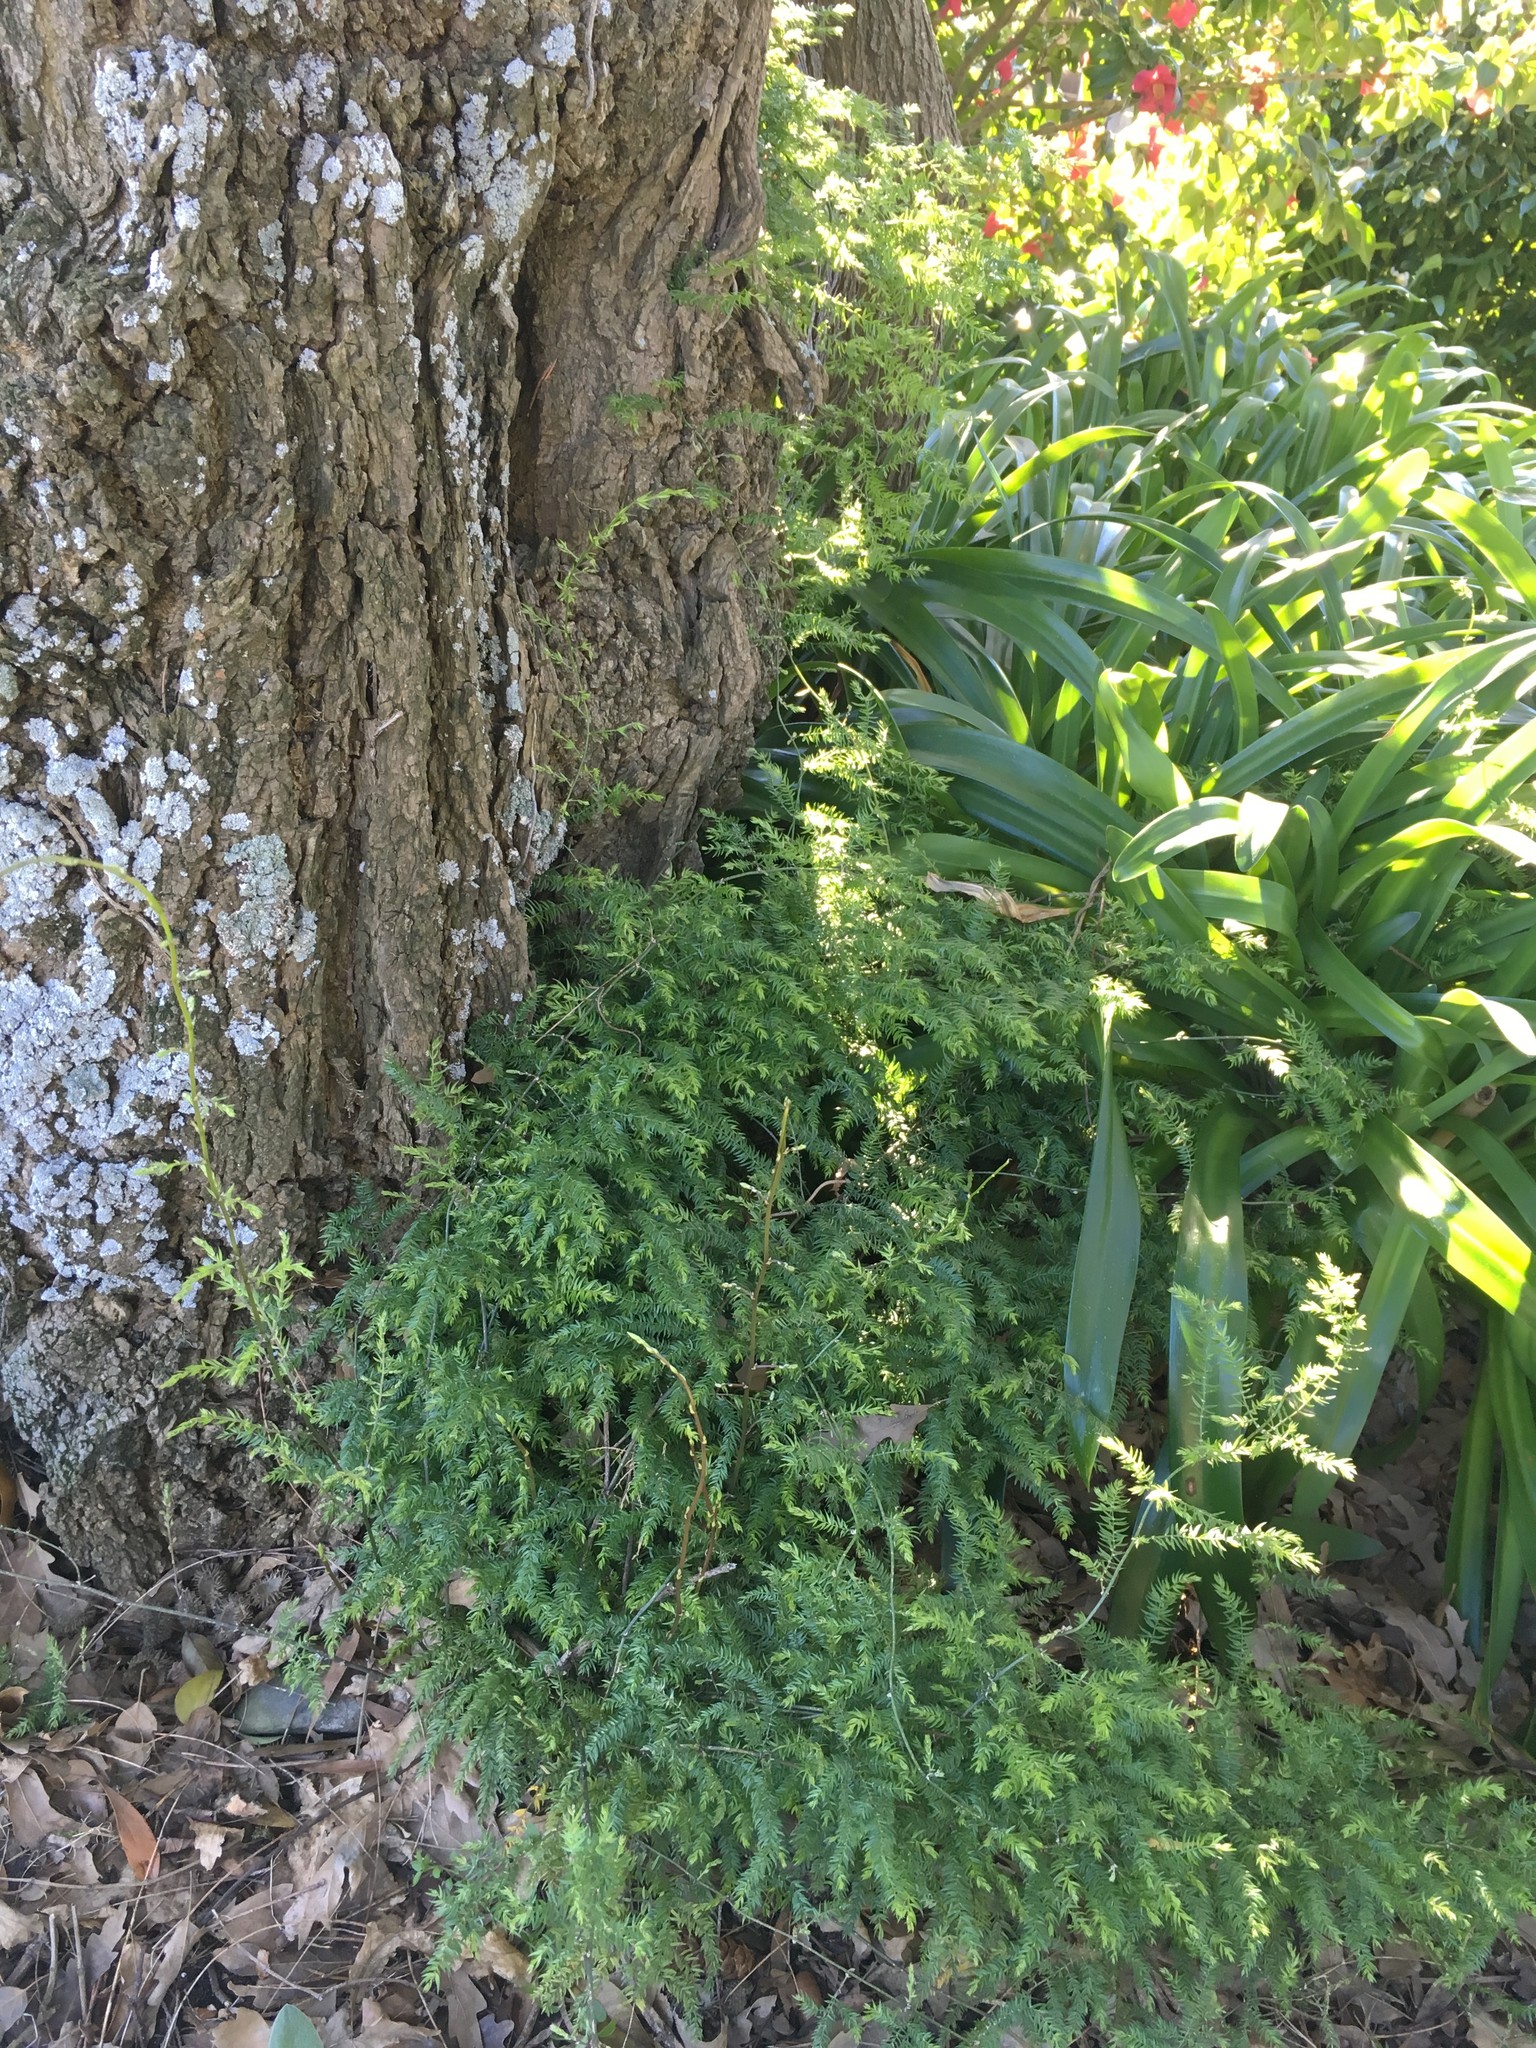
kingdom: Plantae
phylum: Tracheophyta
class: Liliopsida
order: Asparagales
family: Asparagaceae
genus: Asparagus
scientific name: Asparagus scandens
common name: Asparagus-fern
